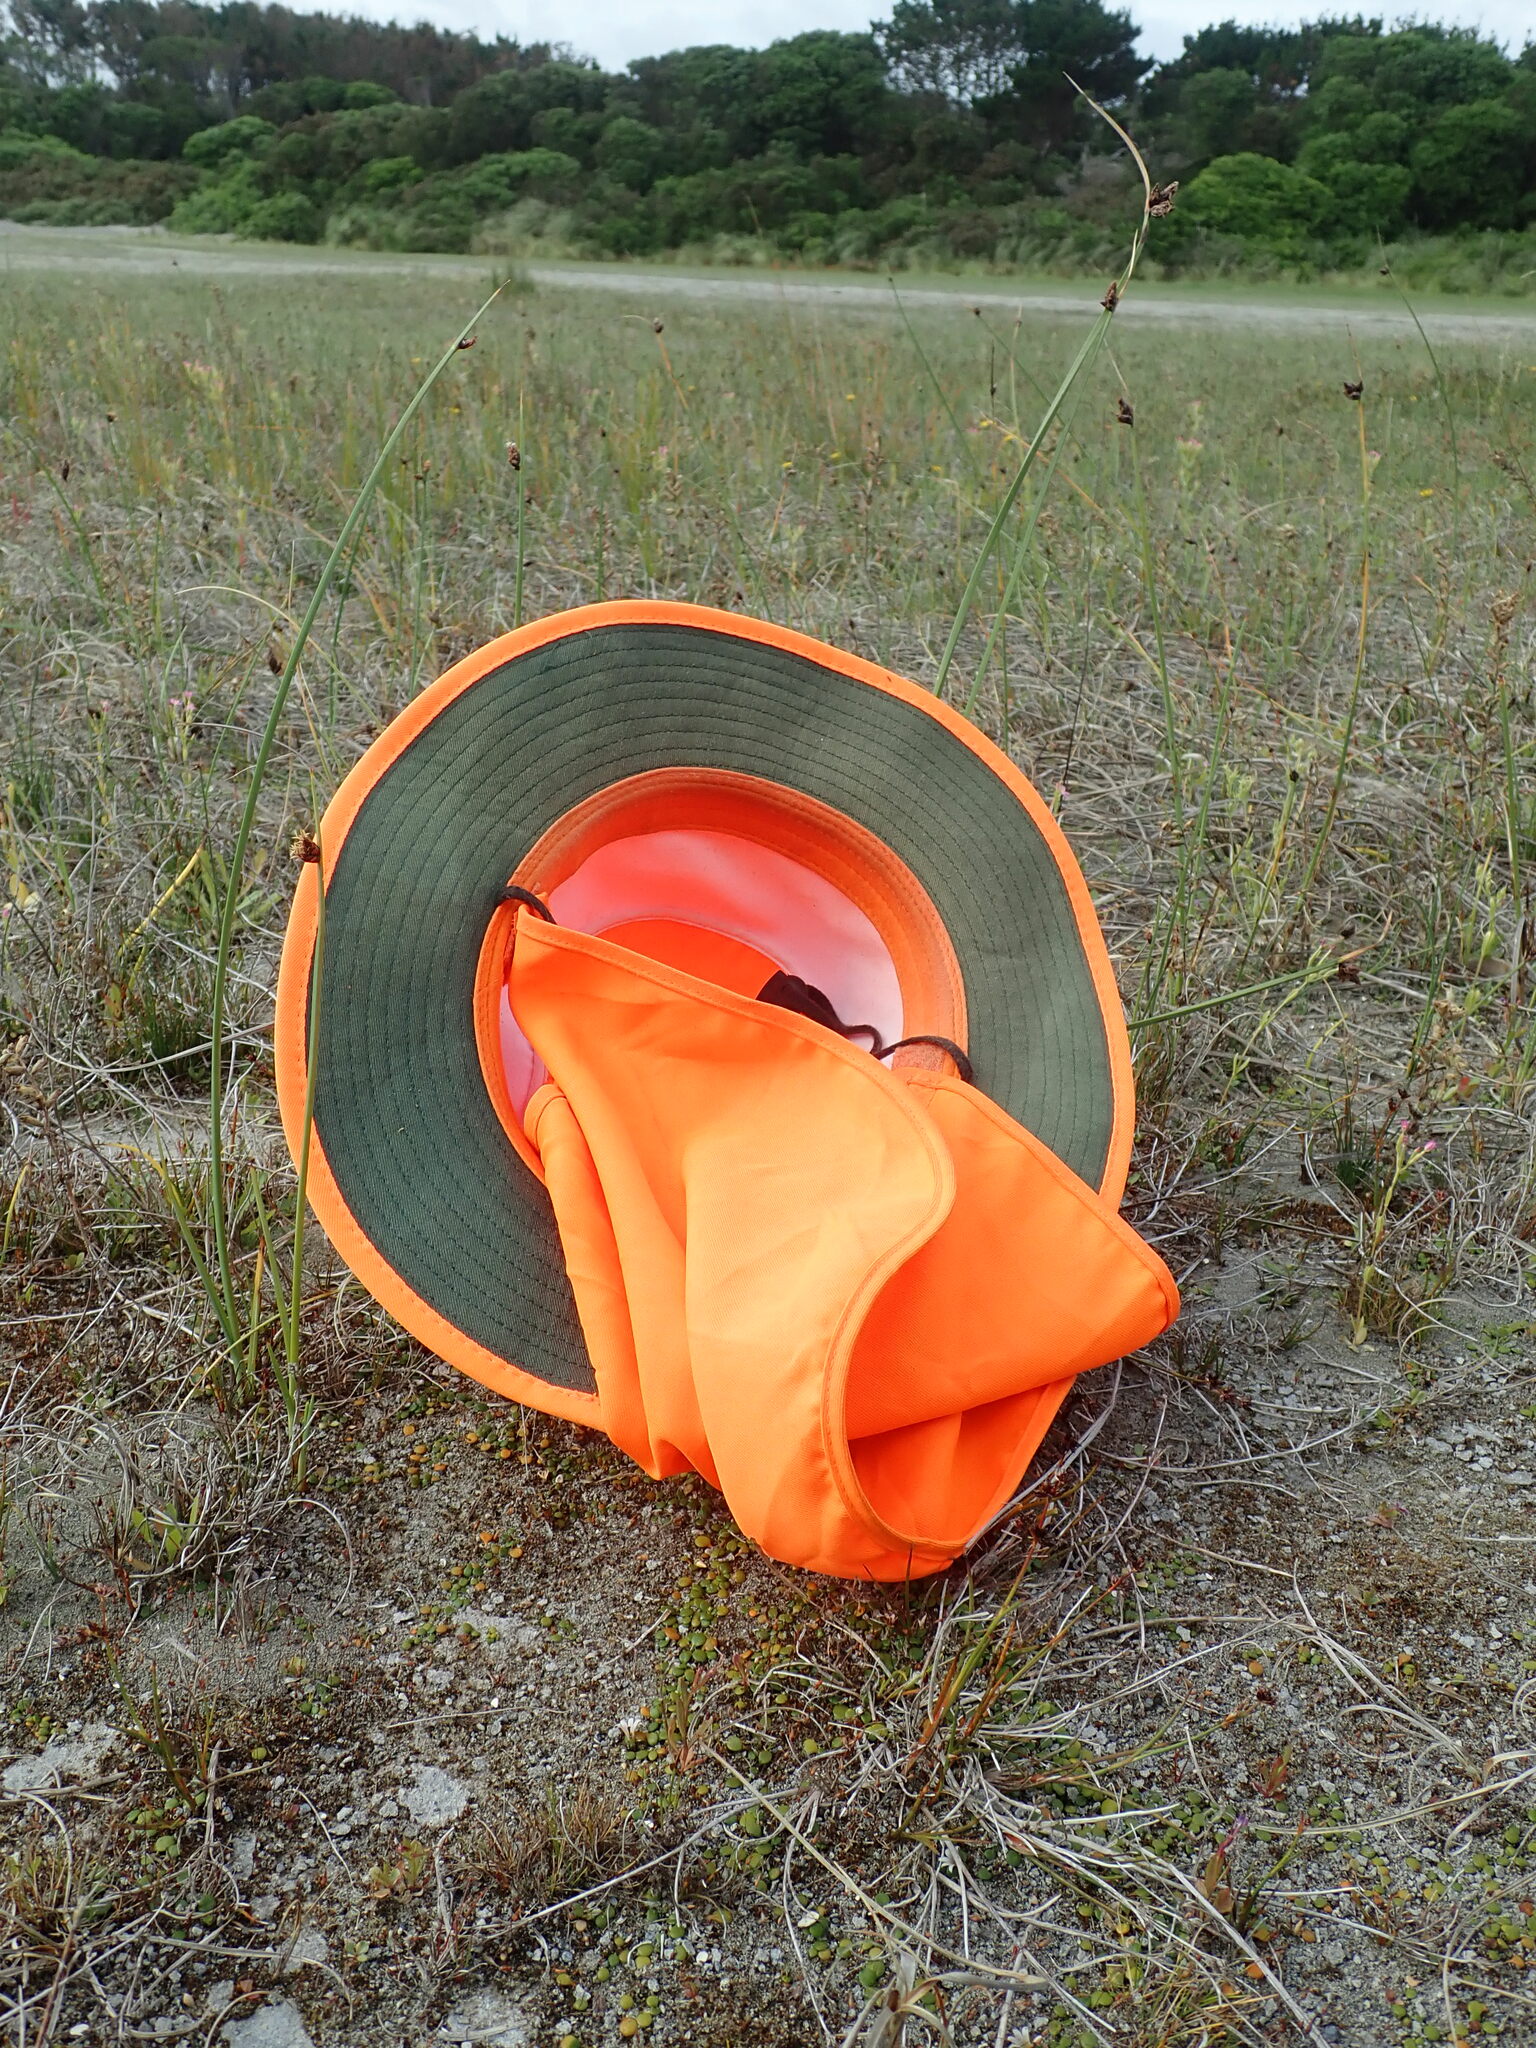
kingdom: Plantae
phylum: Tracheophyta
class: Magnoliopsida
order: Asterales
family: Goodeniaceae
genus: Goodenia
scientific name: Goodenia heenanii
